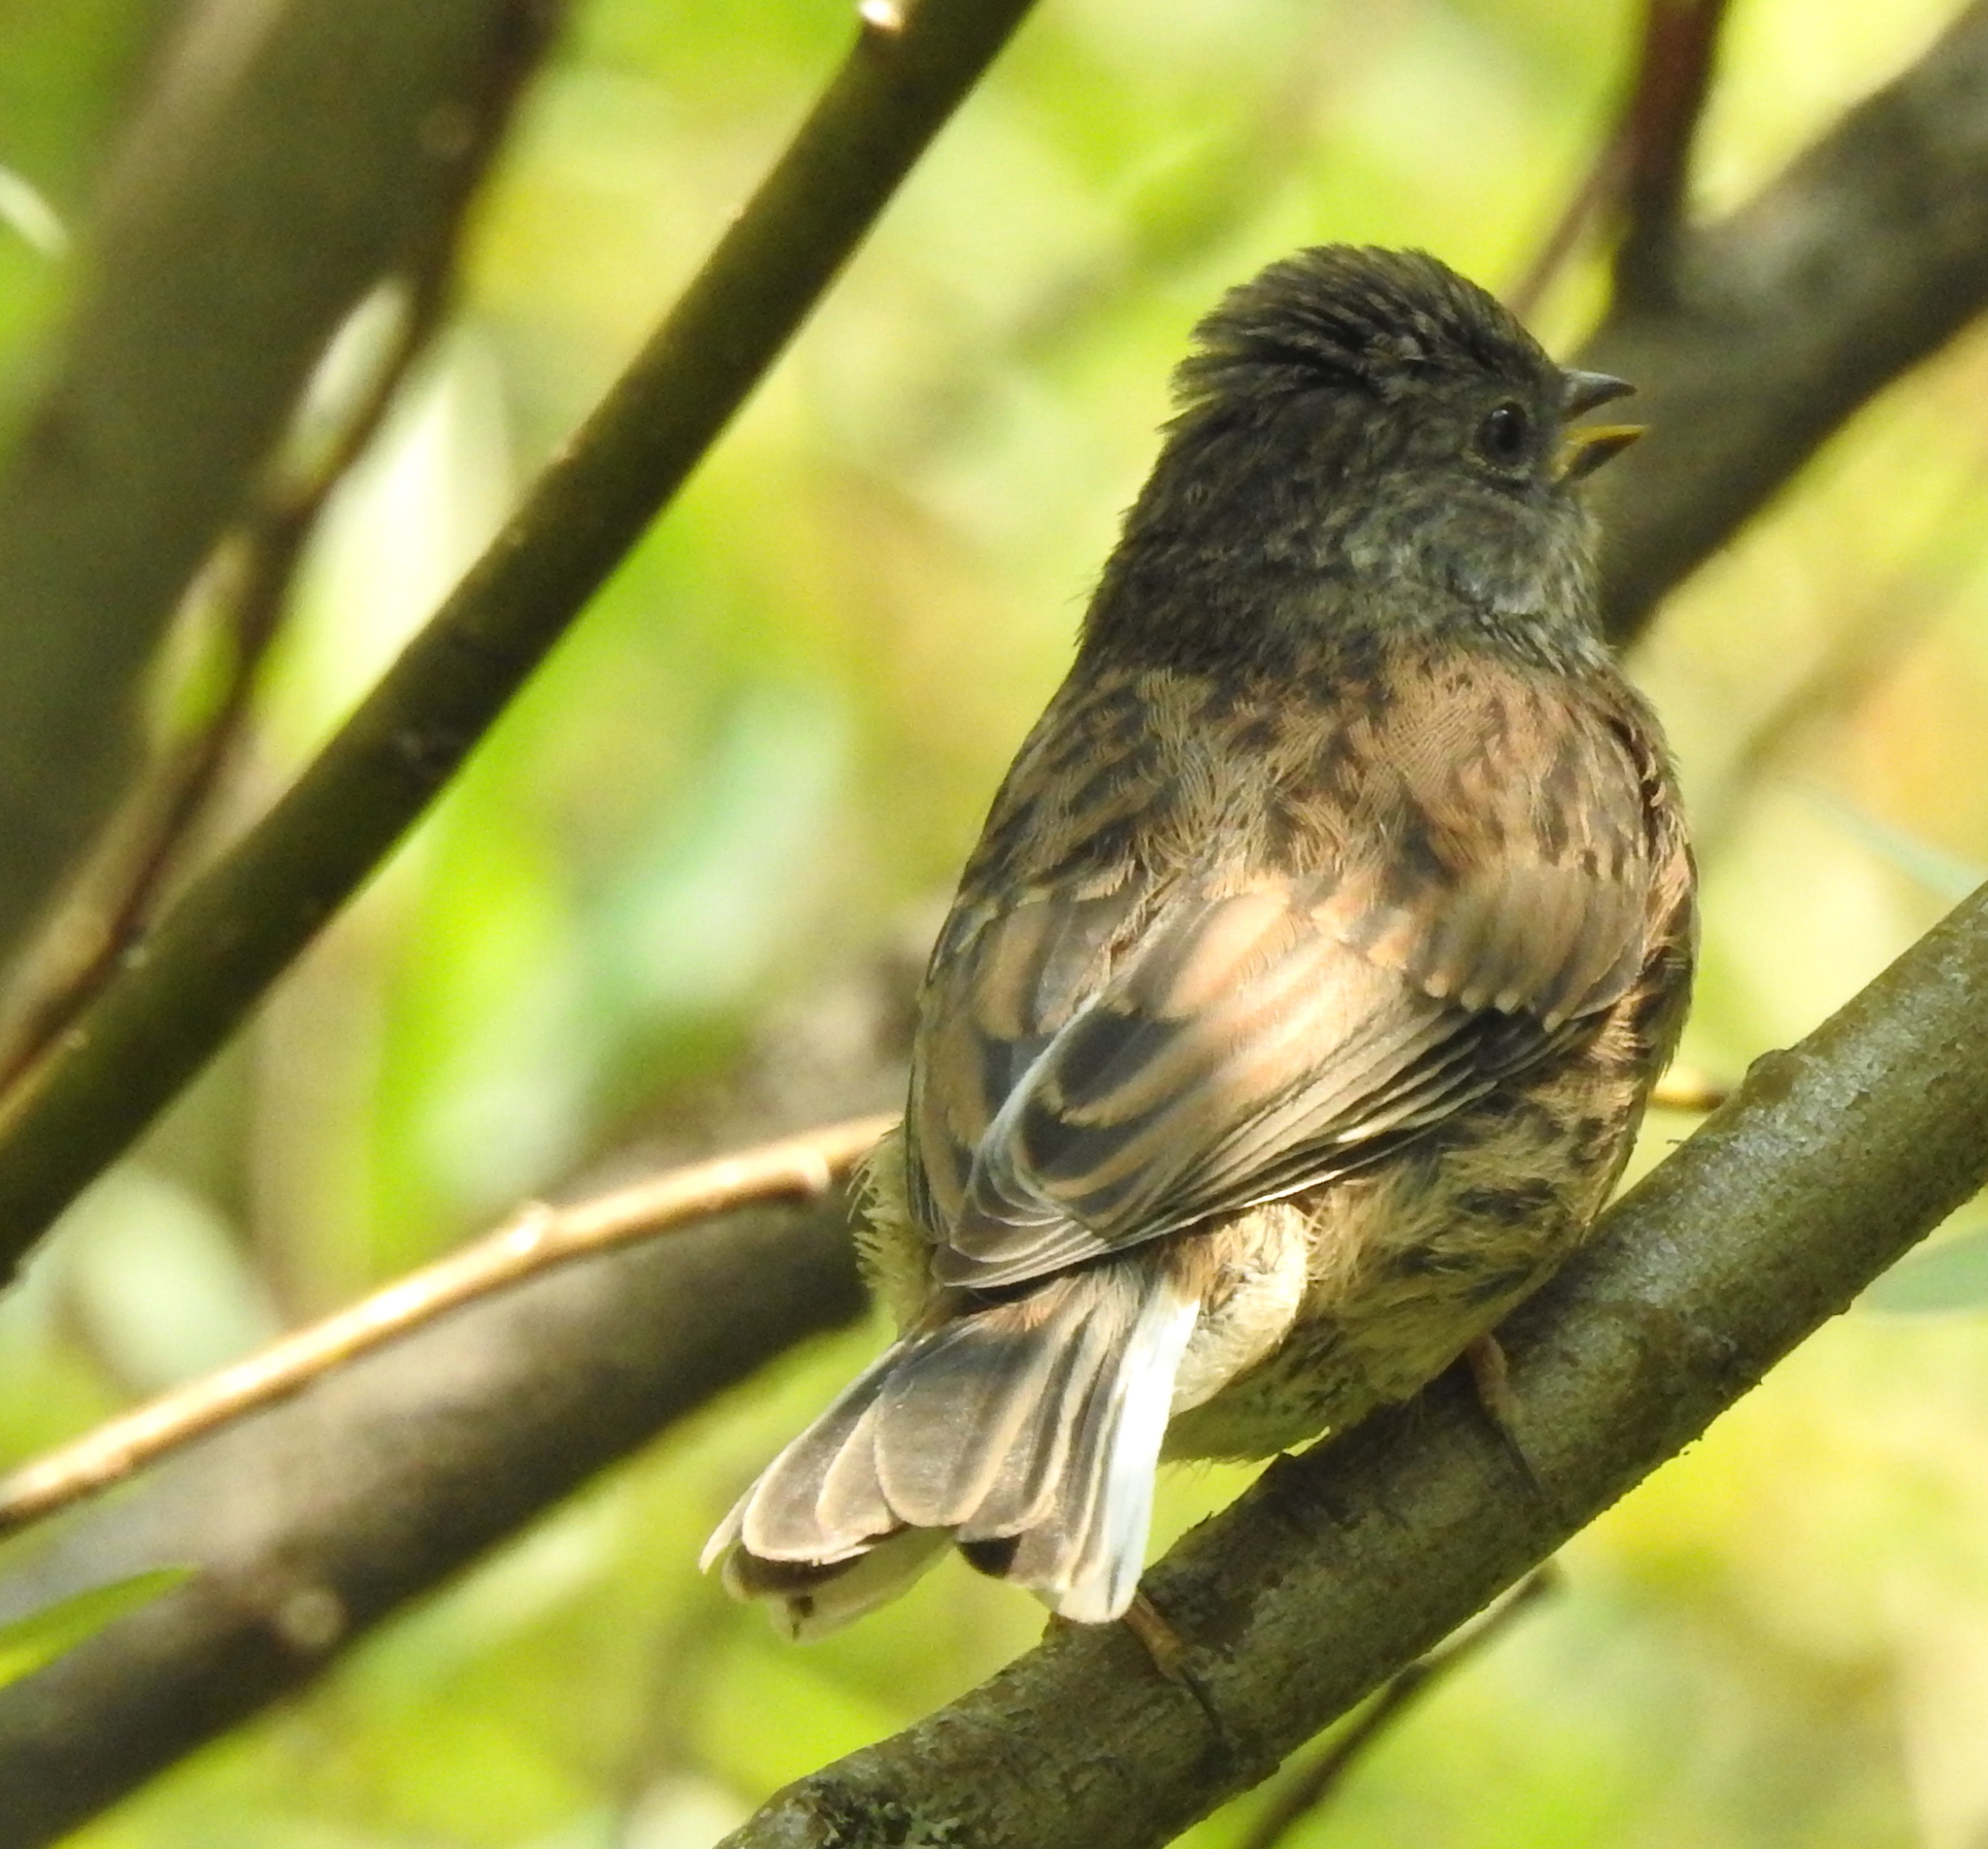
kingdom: Animalia
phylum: Chordata
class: Aves
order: Passeriformes
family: Passerellidae
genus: Junco
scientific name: Junco hyemalis
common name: Dark-eyed junco
